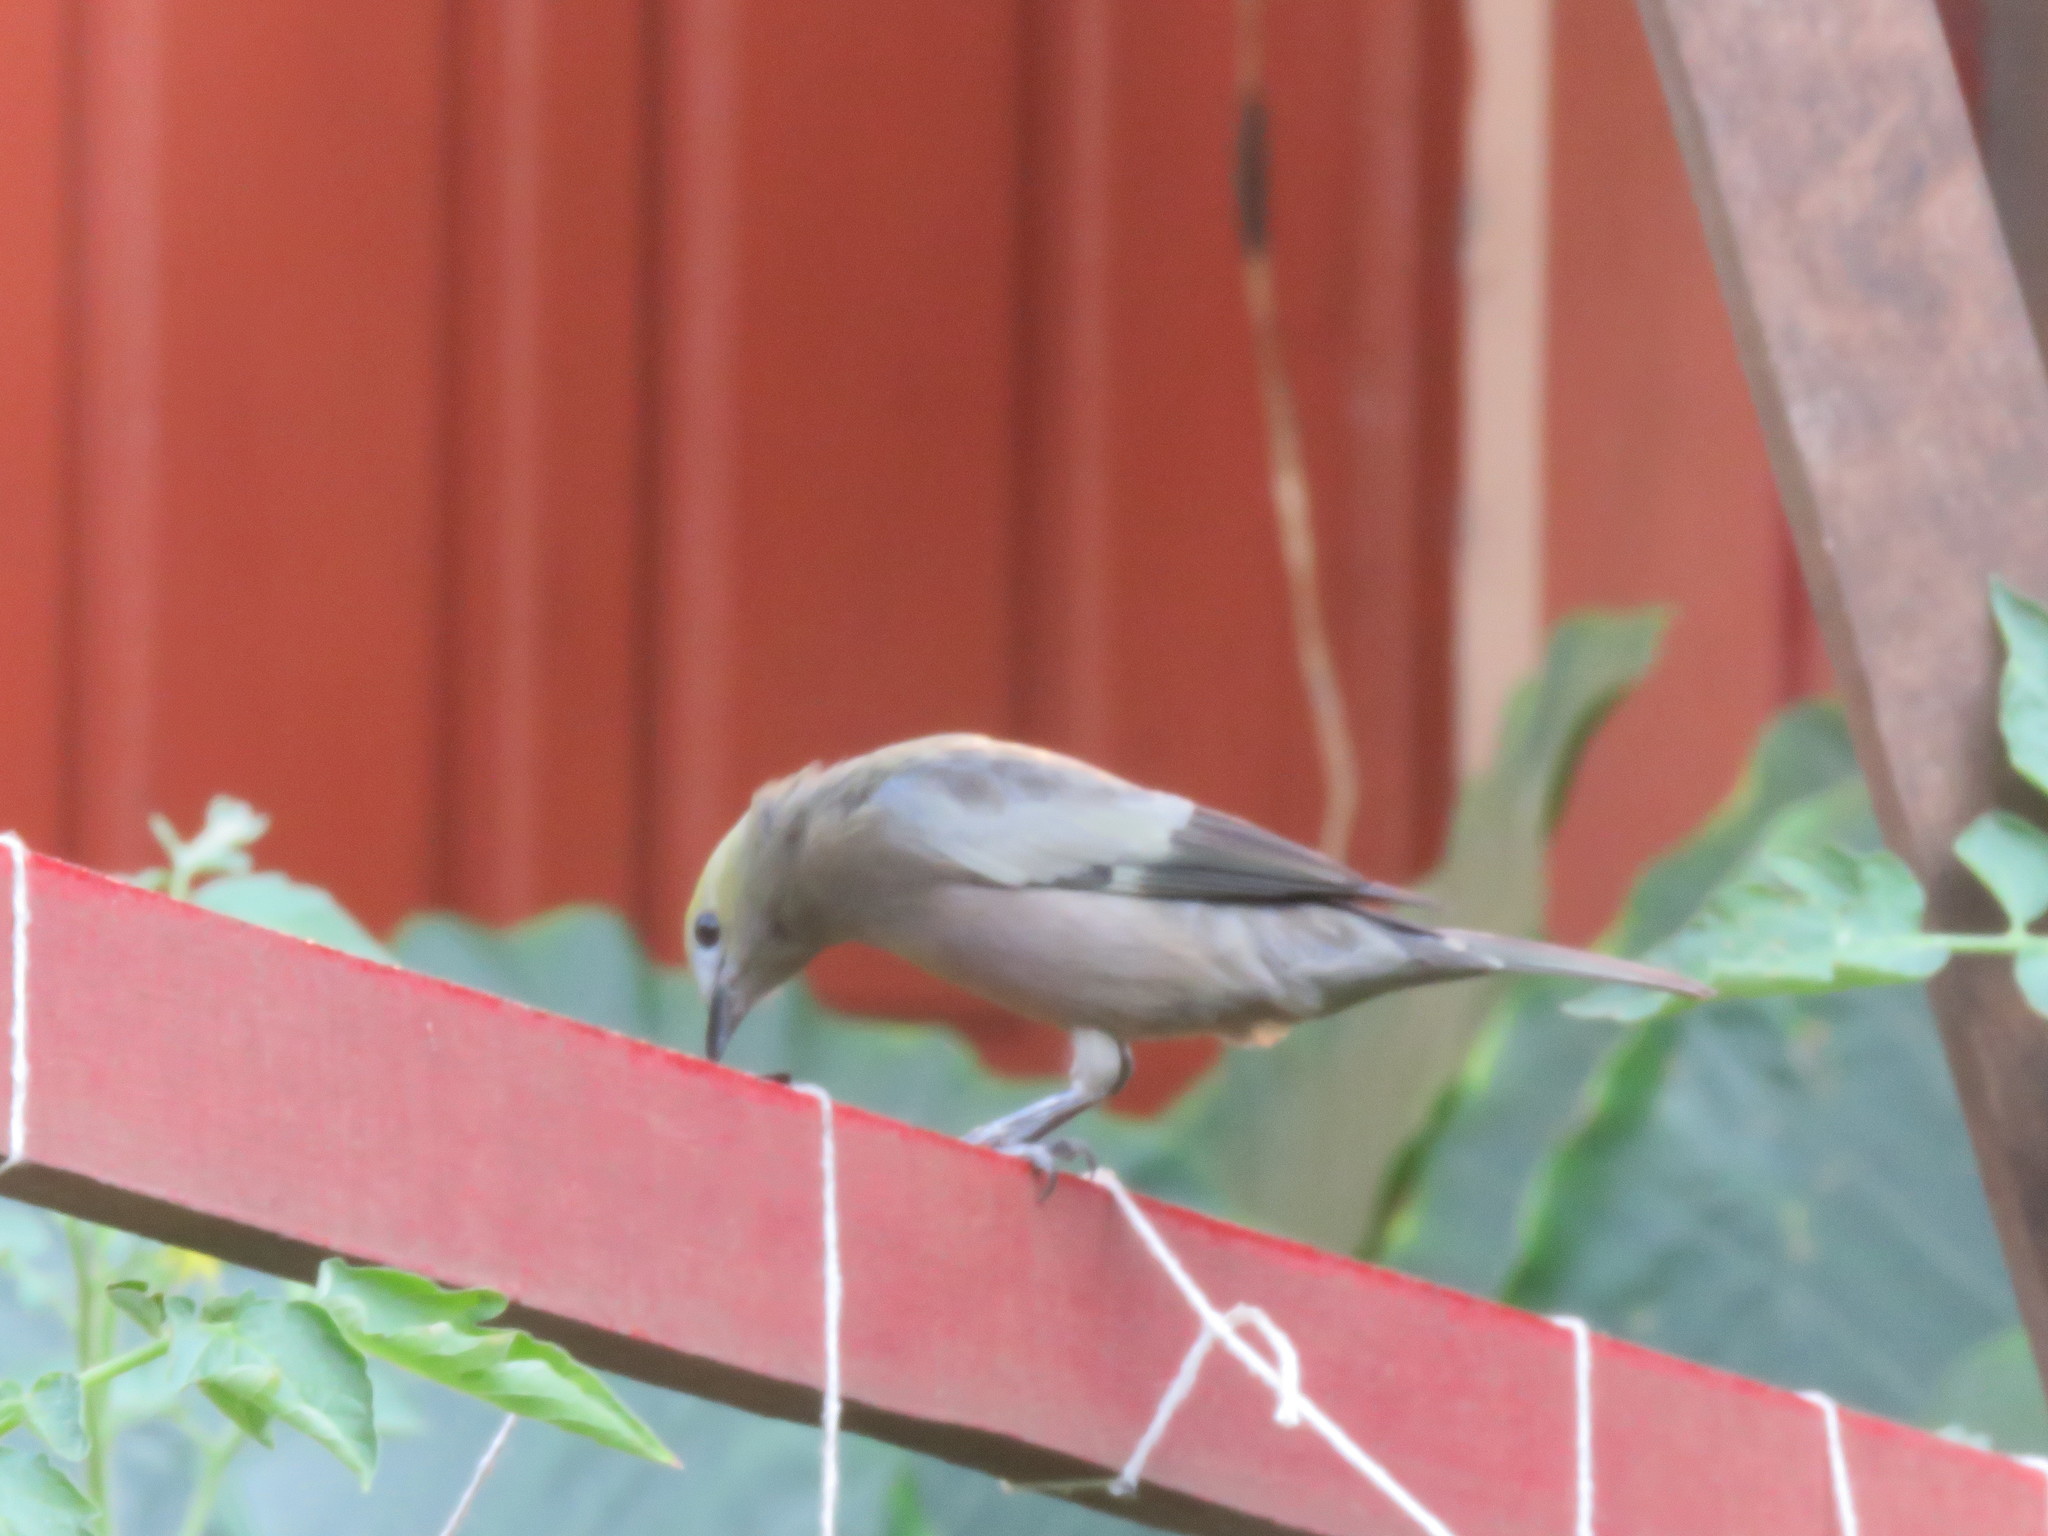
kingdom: Animalia
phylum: Chordata
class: Aves
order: Passeriformes
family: Thraupidae
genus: Thraupis
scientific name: Thraupis palmarum
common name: Palm tanager
